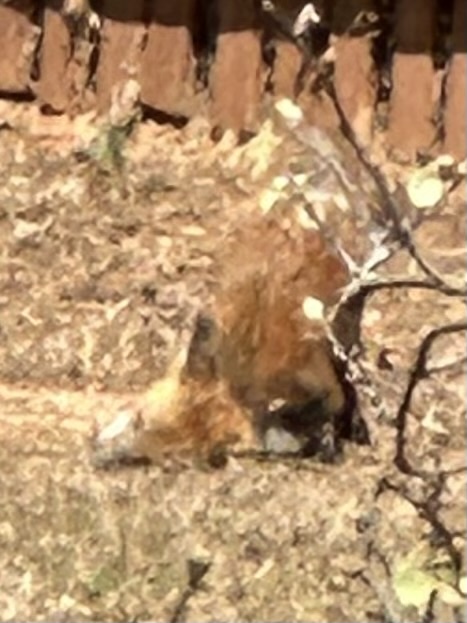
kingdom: Animalia
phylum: Chordata
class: Mammalia
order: Carnivora
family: Canidae
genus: Vulpes
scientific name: Vulpes vulpes
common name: Red fox
